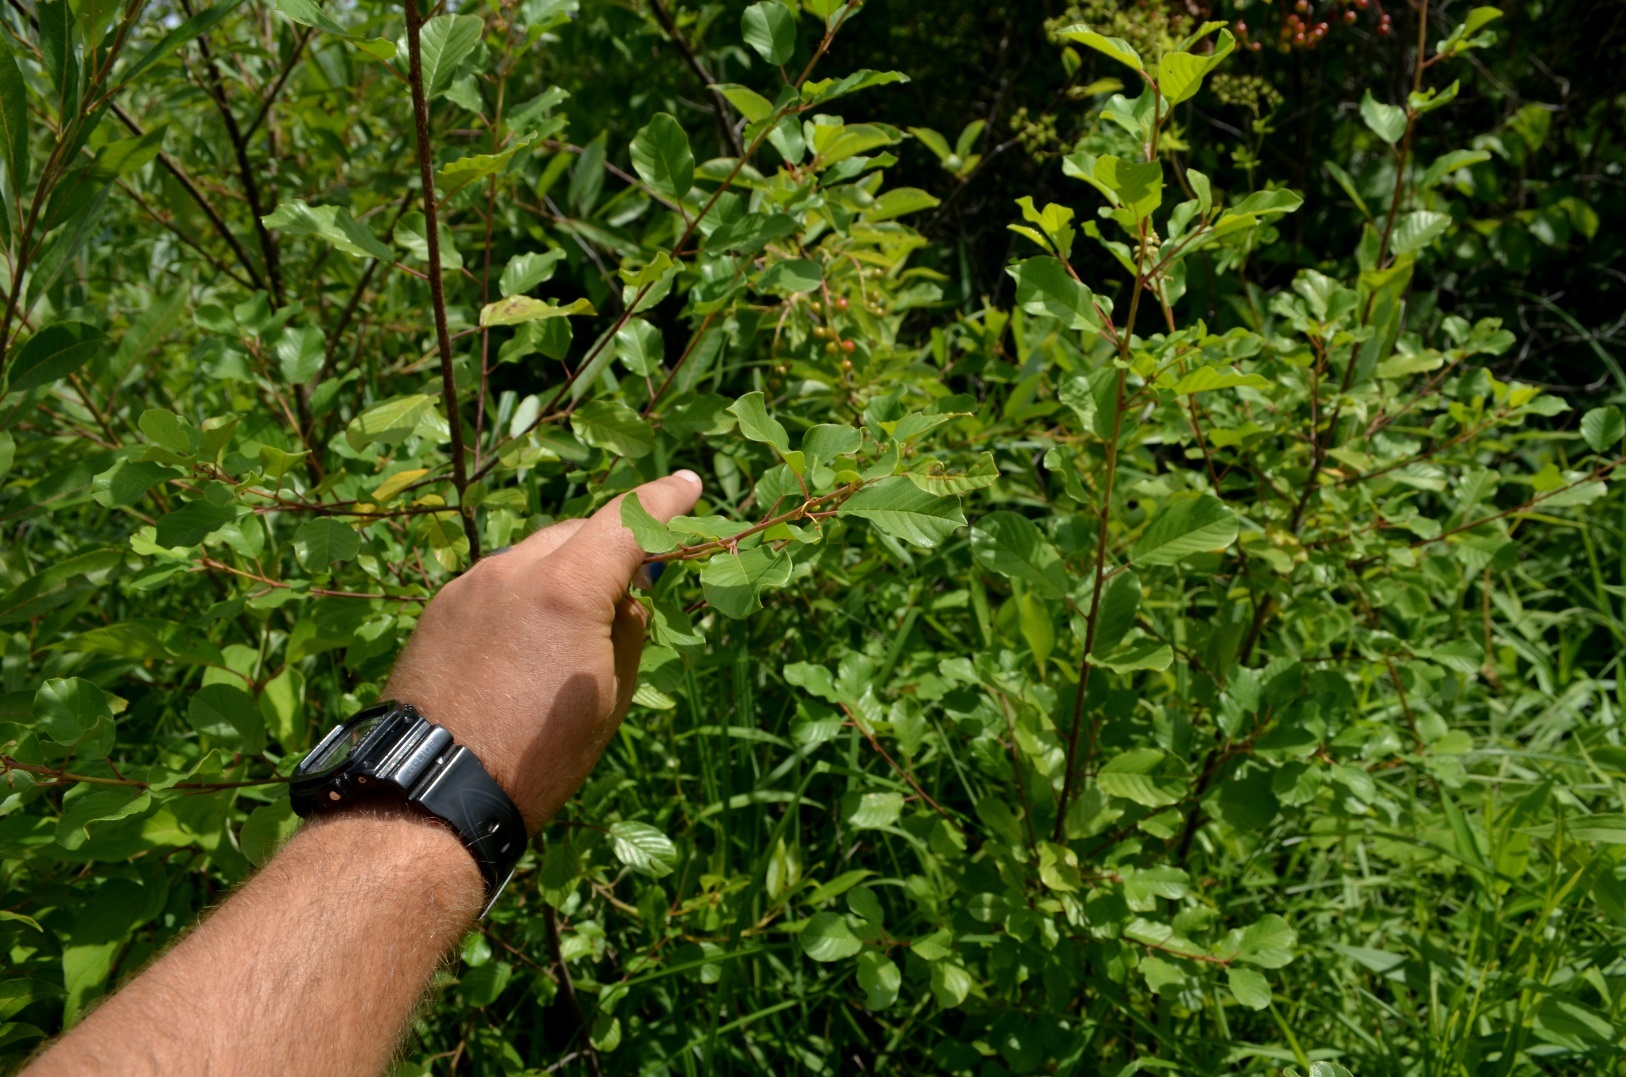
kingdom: Plantae
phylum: Tracheophyta
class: Magnoliopsida
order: Rosales
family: Rhamnaceae
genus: Frangula
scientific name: Frangula alnus
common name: Alder buckthorn
